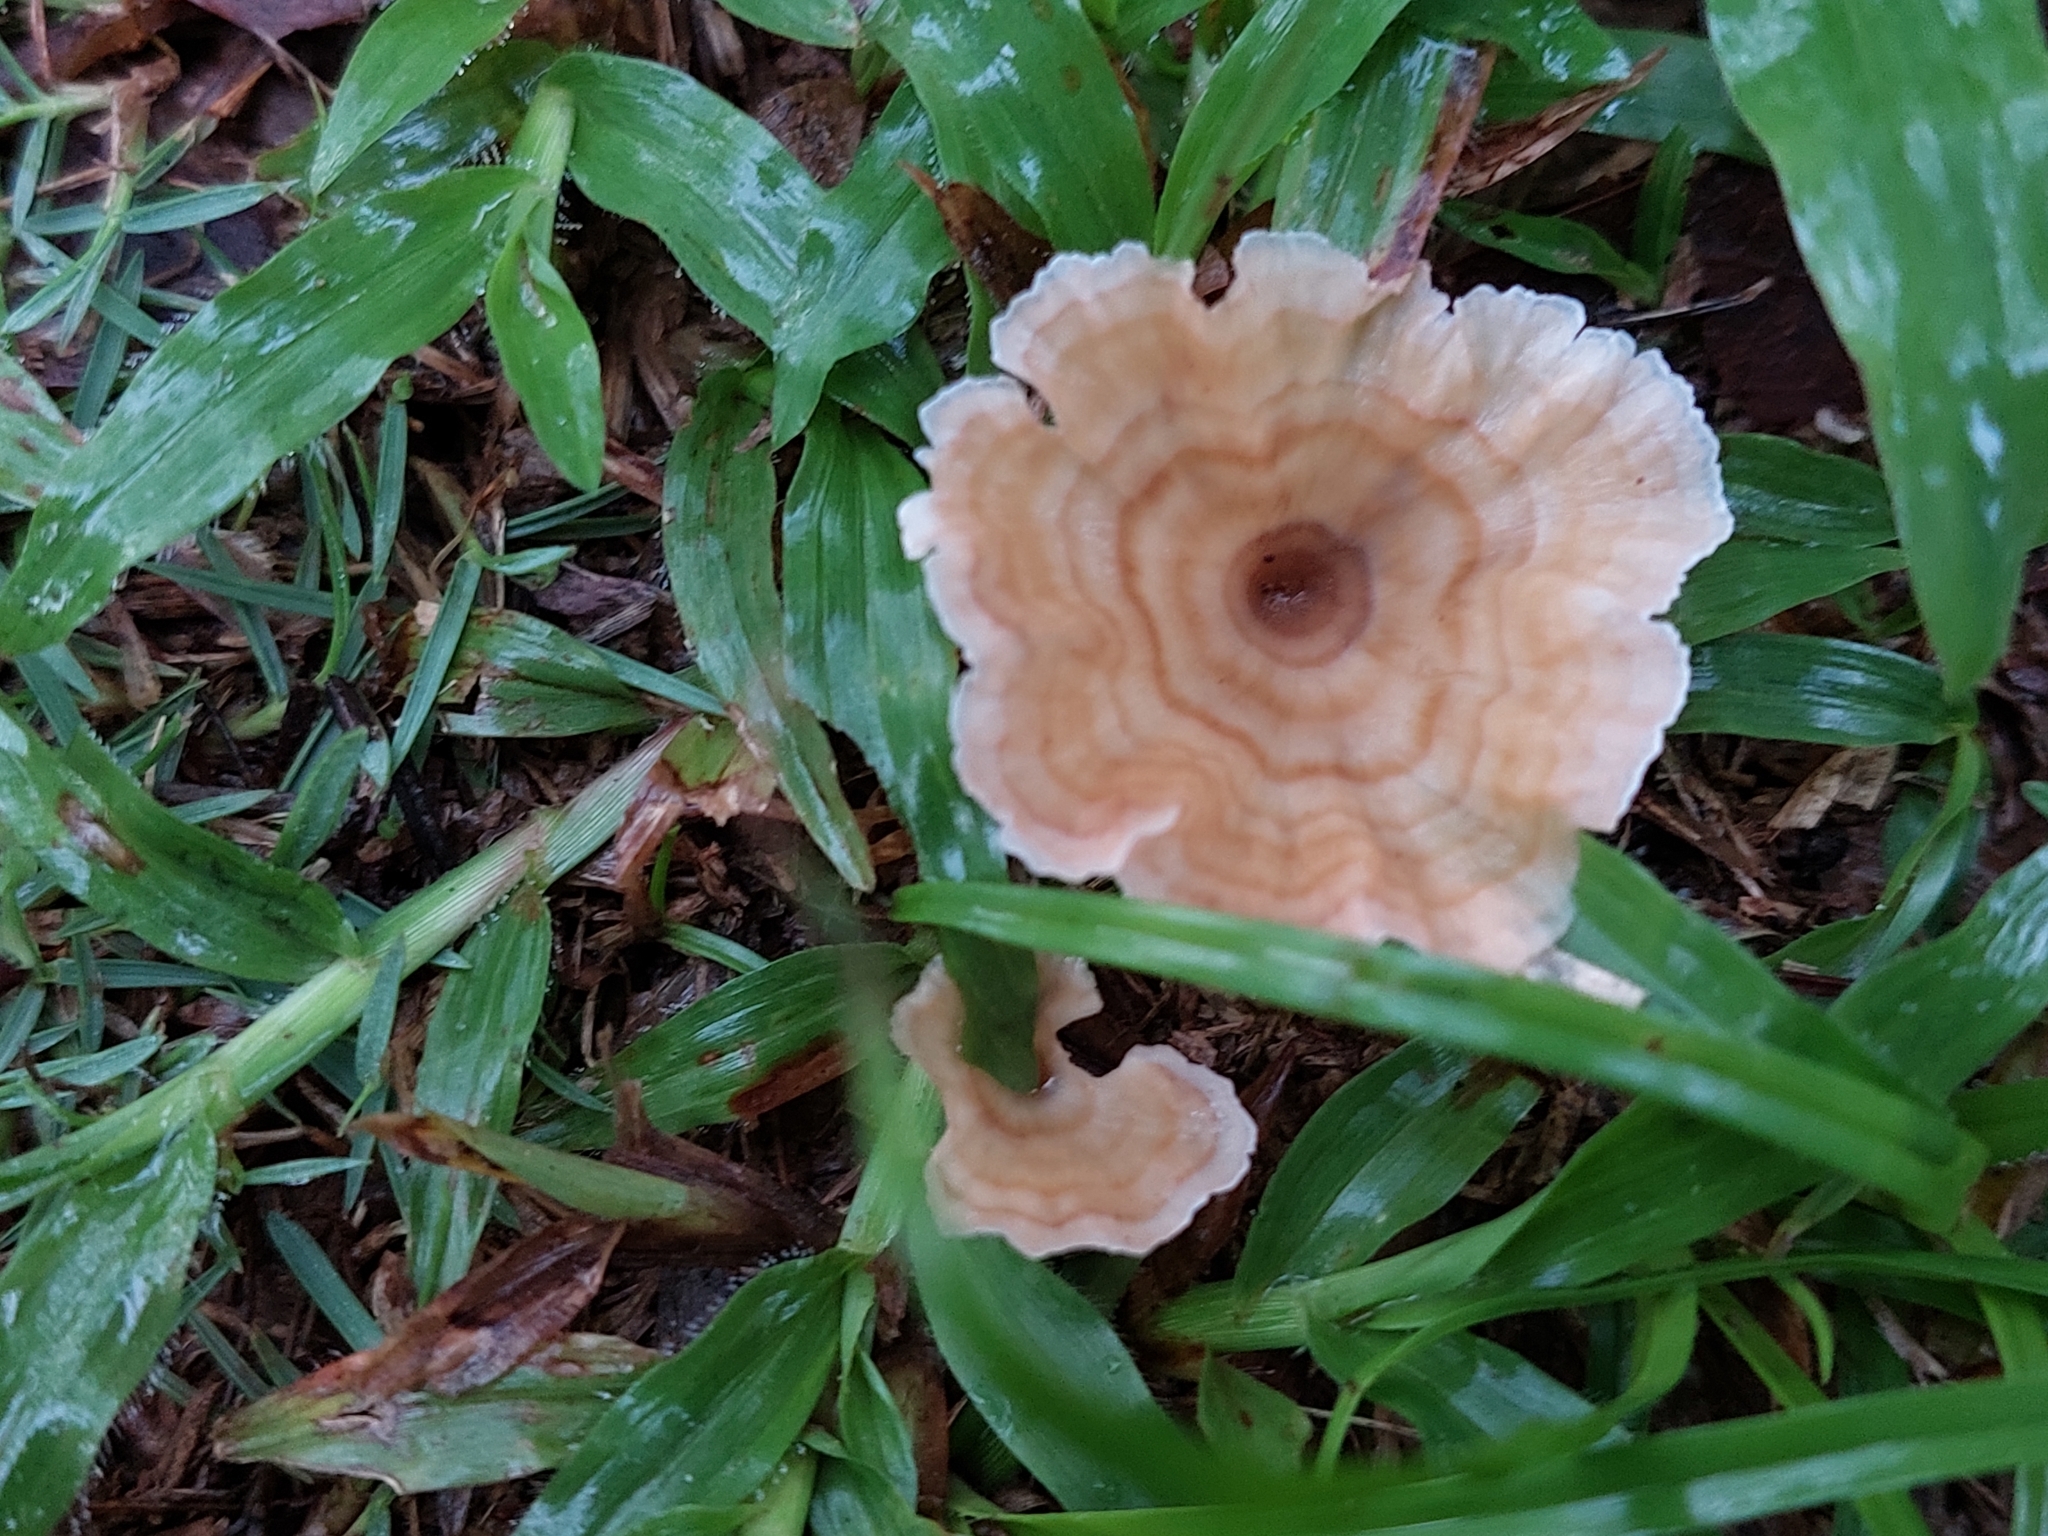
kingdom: Fungi
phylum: Basidiomycota
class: Agaricomycetes
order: Hymenochaetales
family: Rickenellaceae
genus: Cotylidia
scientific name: Cotylidia aurantiaca
